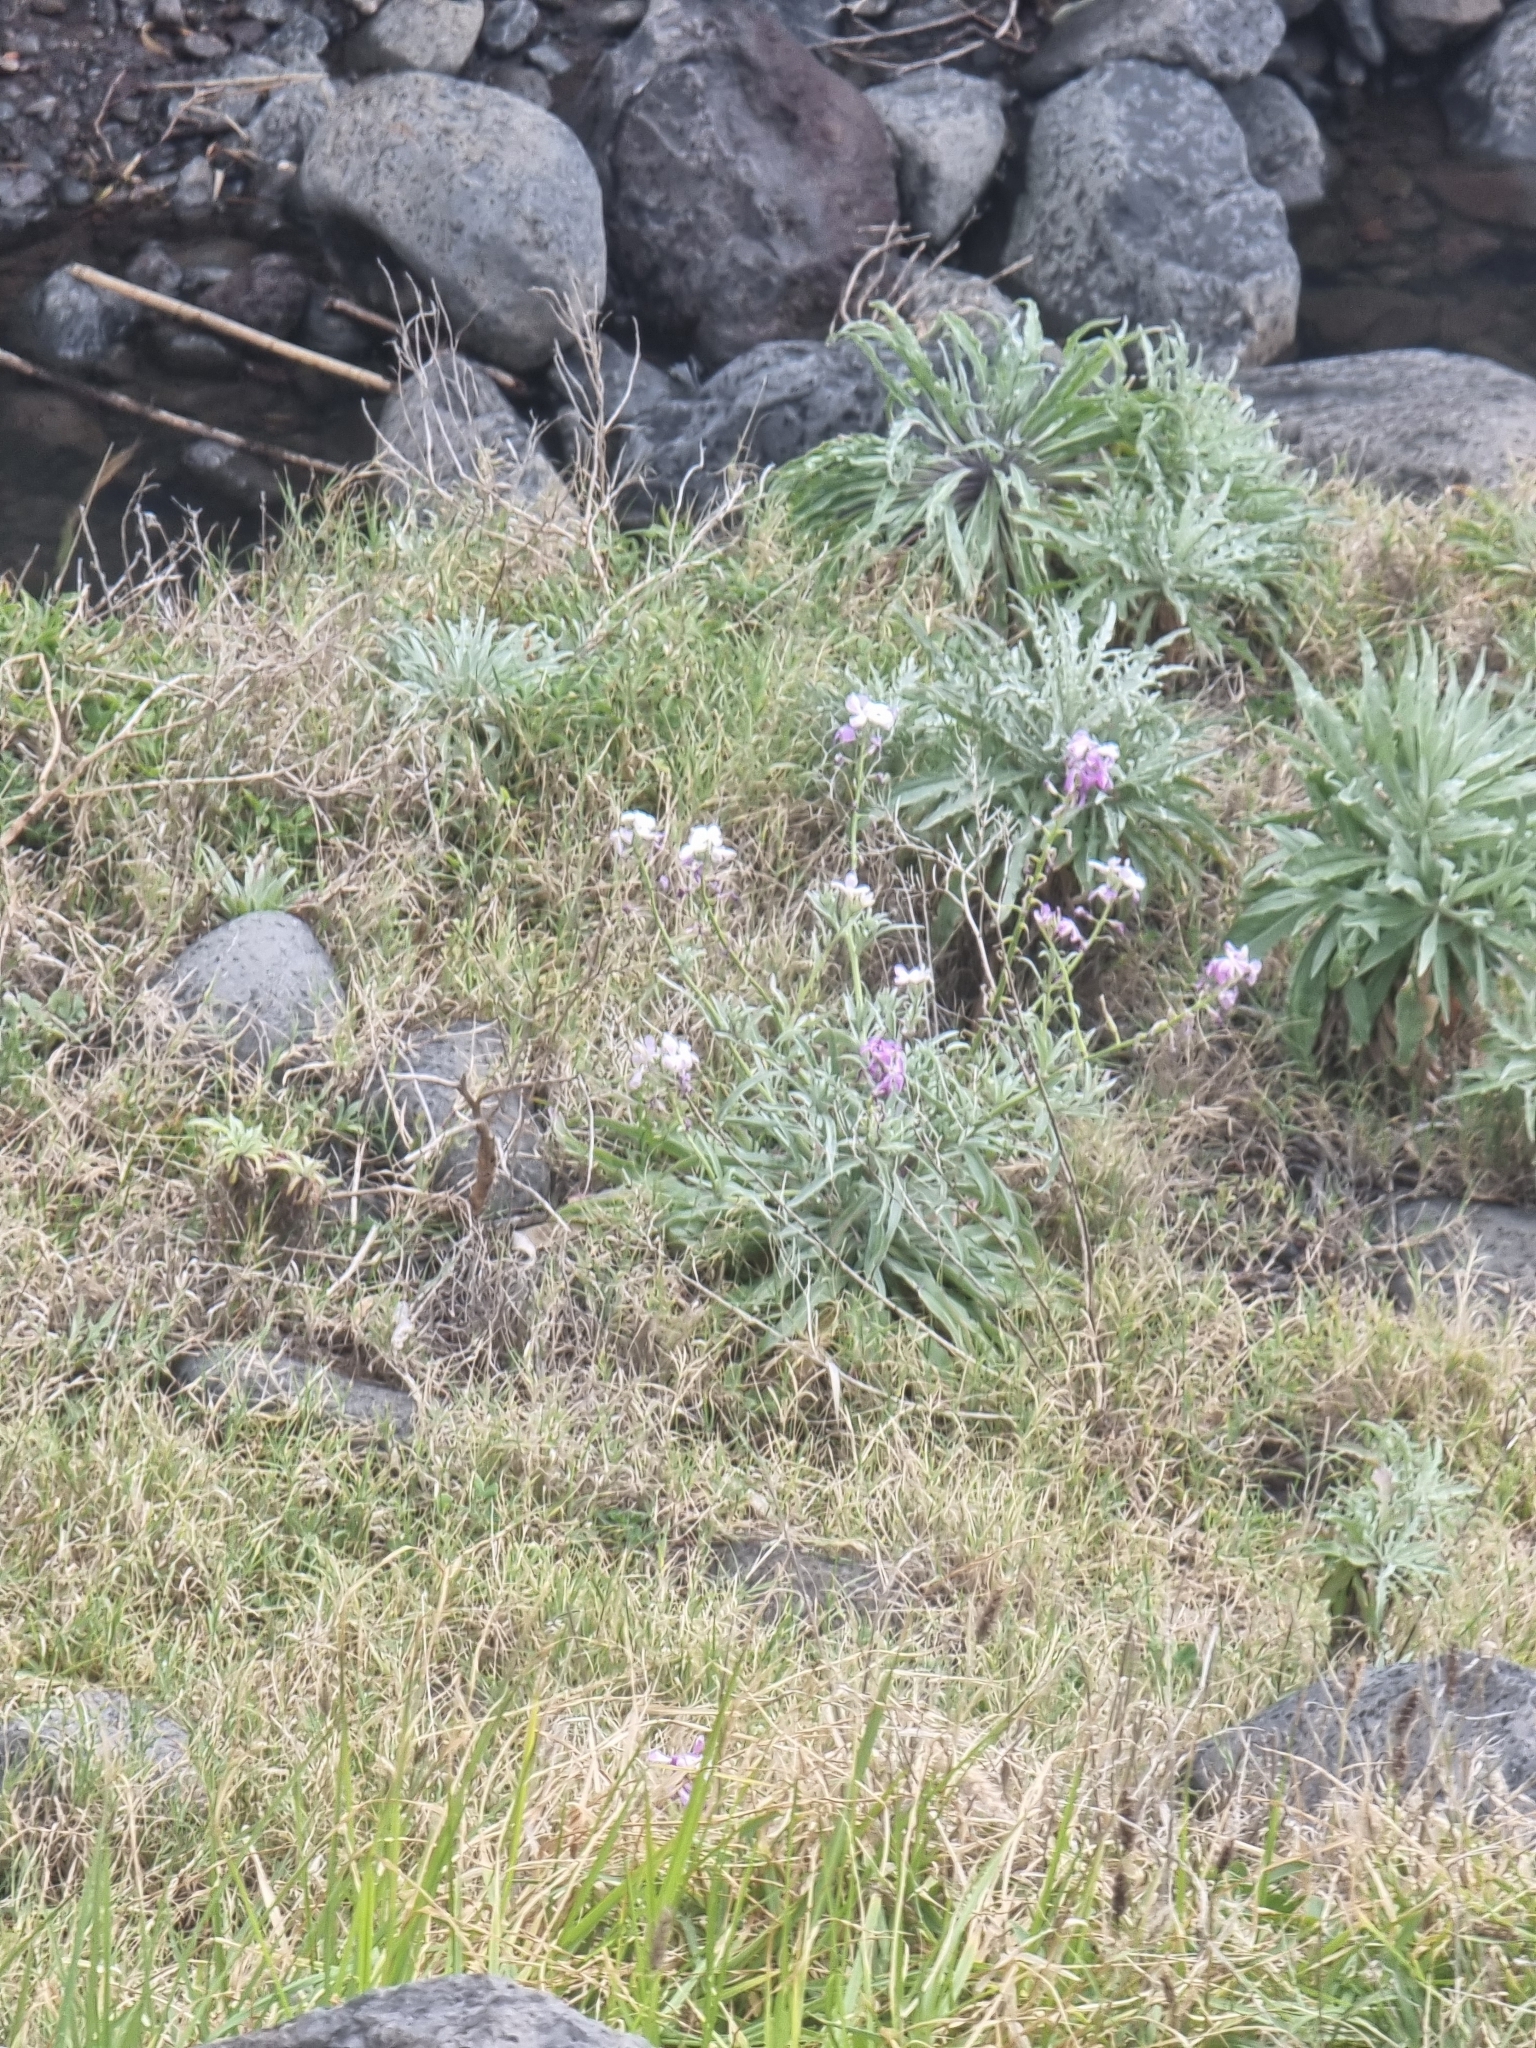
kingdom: Plantae
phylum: Tracheophyta
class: Magnoliopsida
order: Brassicales
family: Brassicaceae
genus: Matthiola
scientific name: Matthiola maderensis
